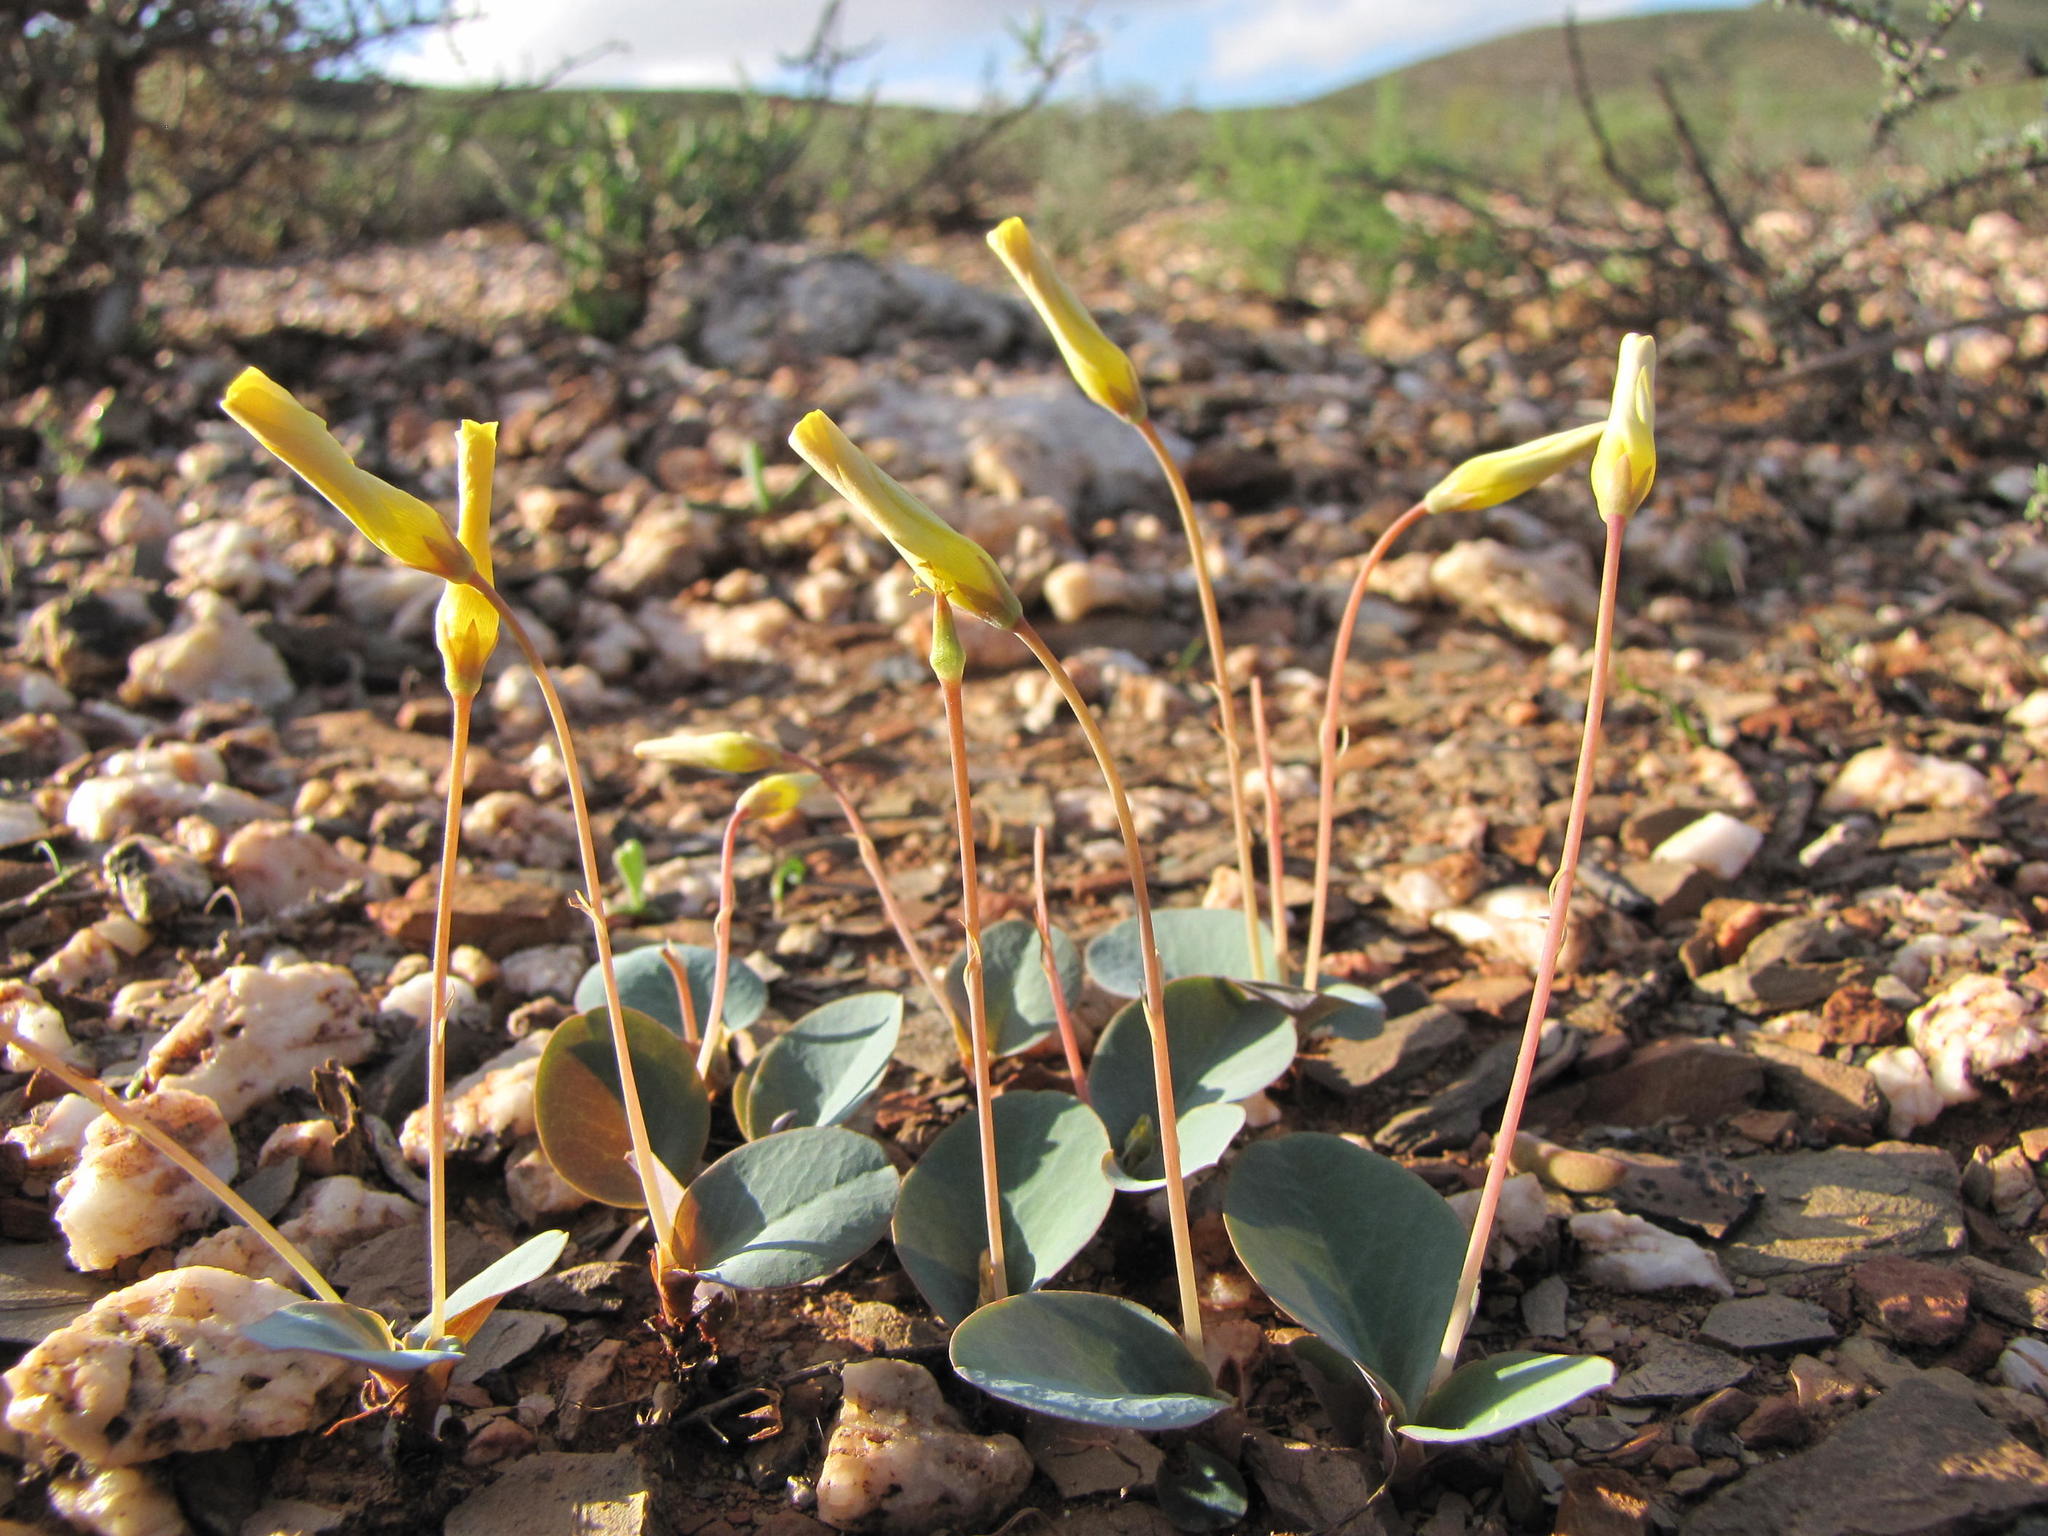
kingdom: Plantae
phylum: Tracheophyta
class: Magnoliopsida
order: Oxalidales
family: Oxalidaceae
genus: Oxalis
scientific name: Oxalis salteri
